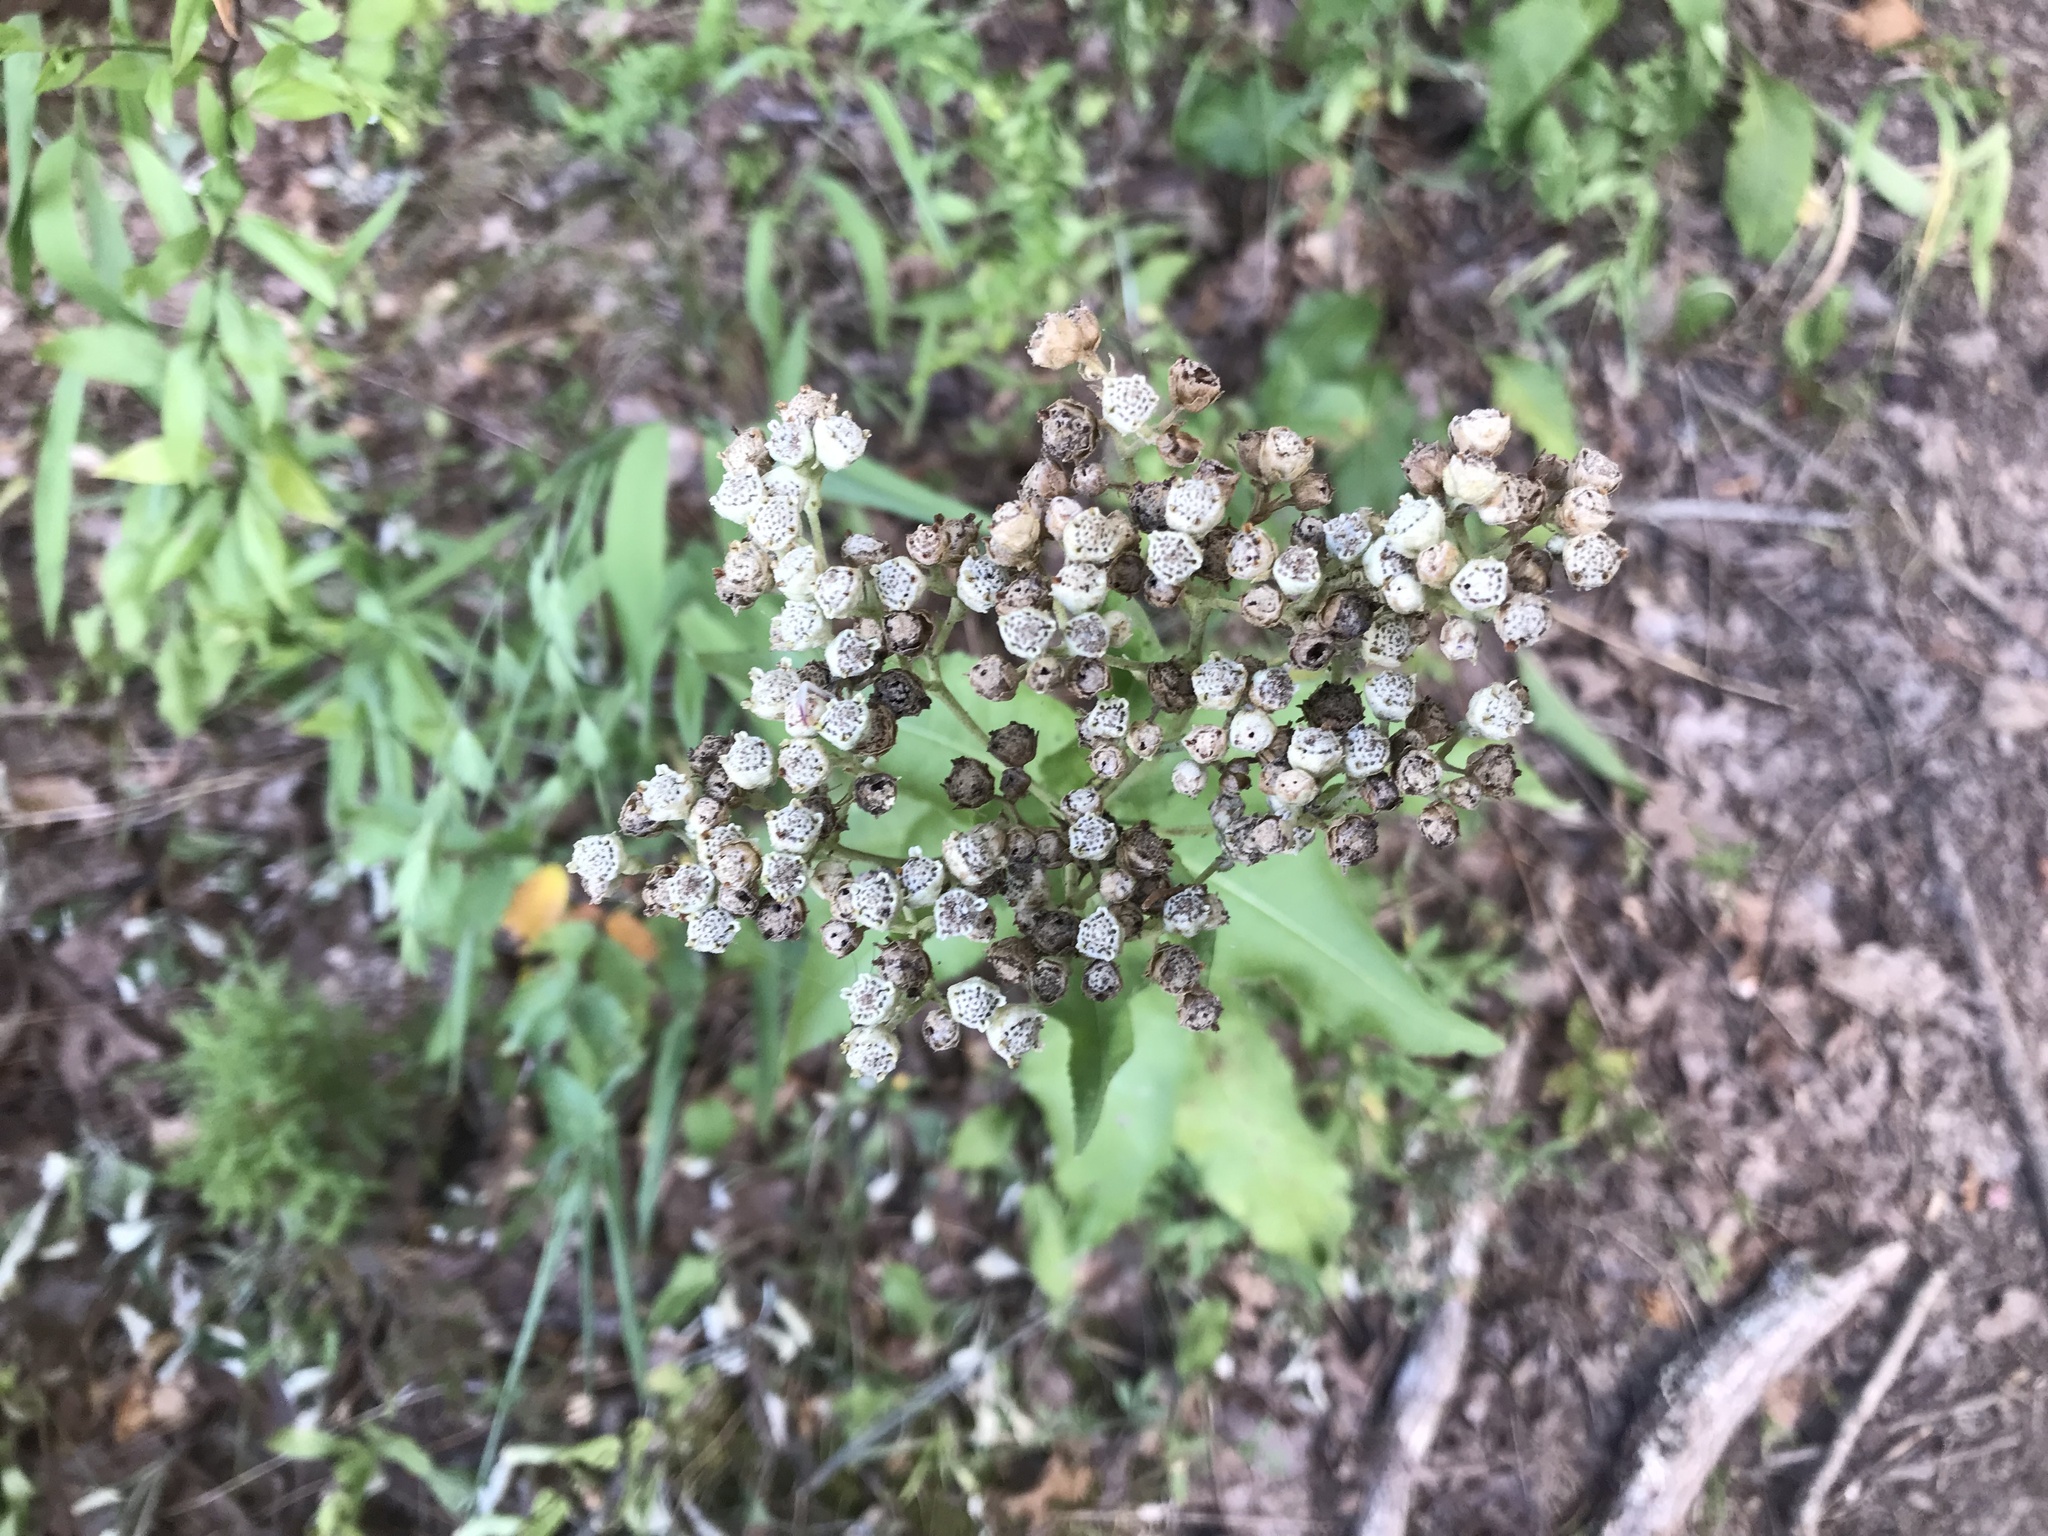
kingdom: Plantae
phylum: Tracheophyta
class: Magnoliopsida
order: Asterales
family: Asteraceae
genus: Parthenium
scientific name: Parthenium integrifolium
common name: American feverfew
